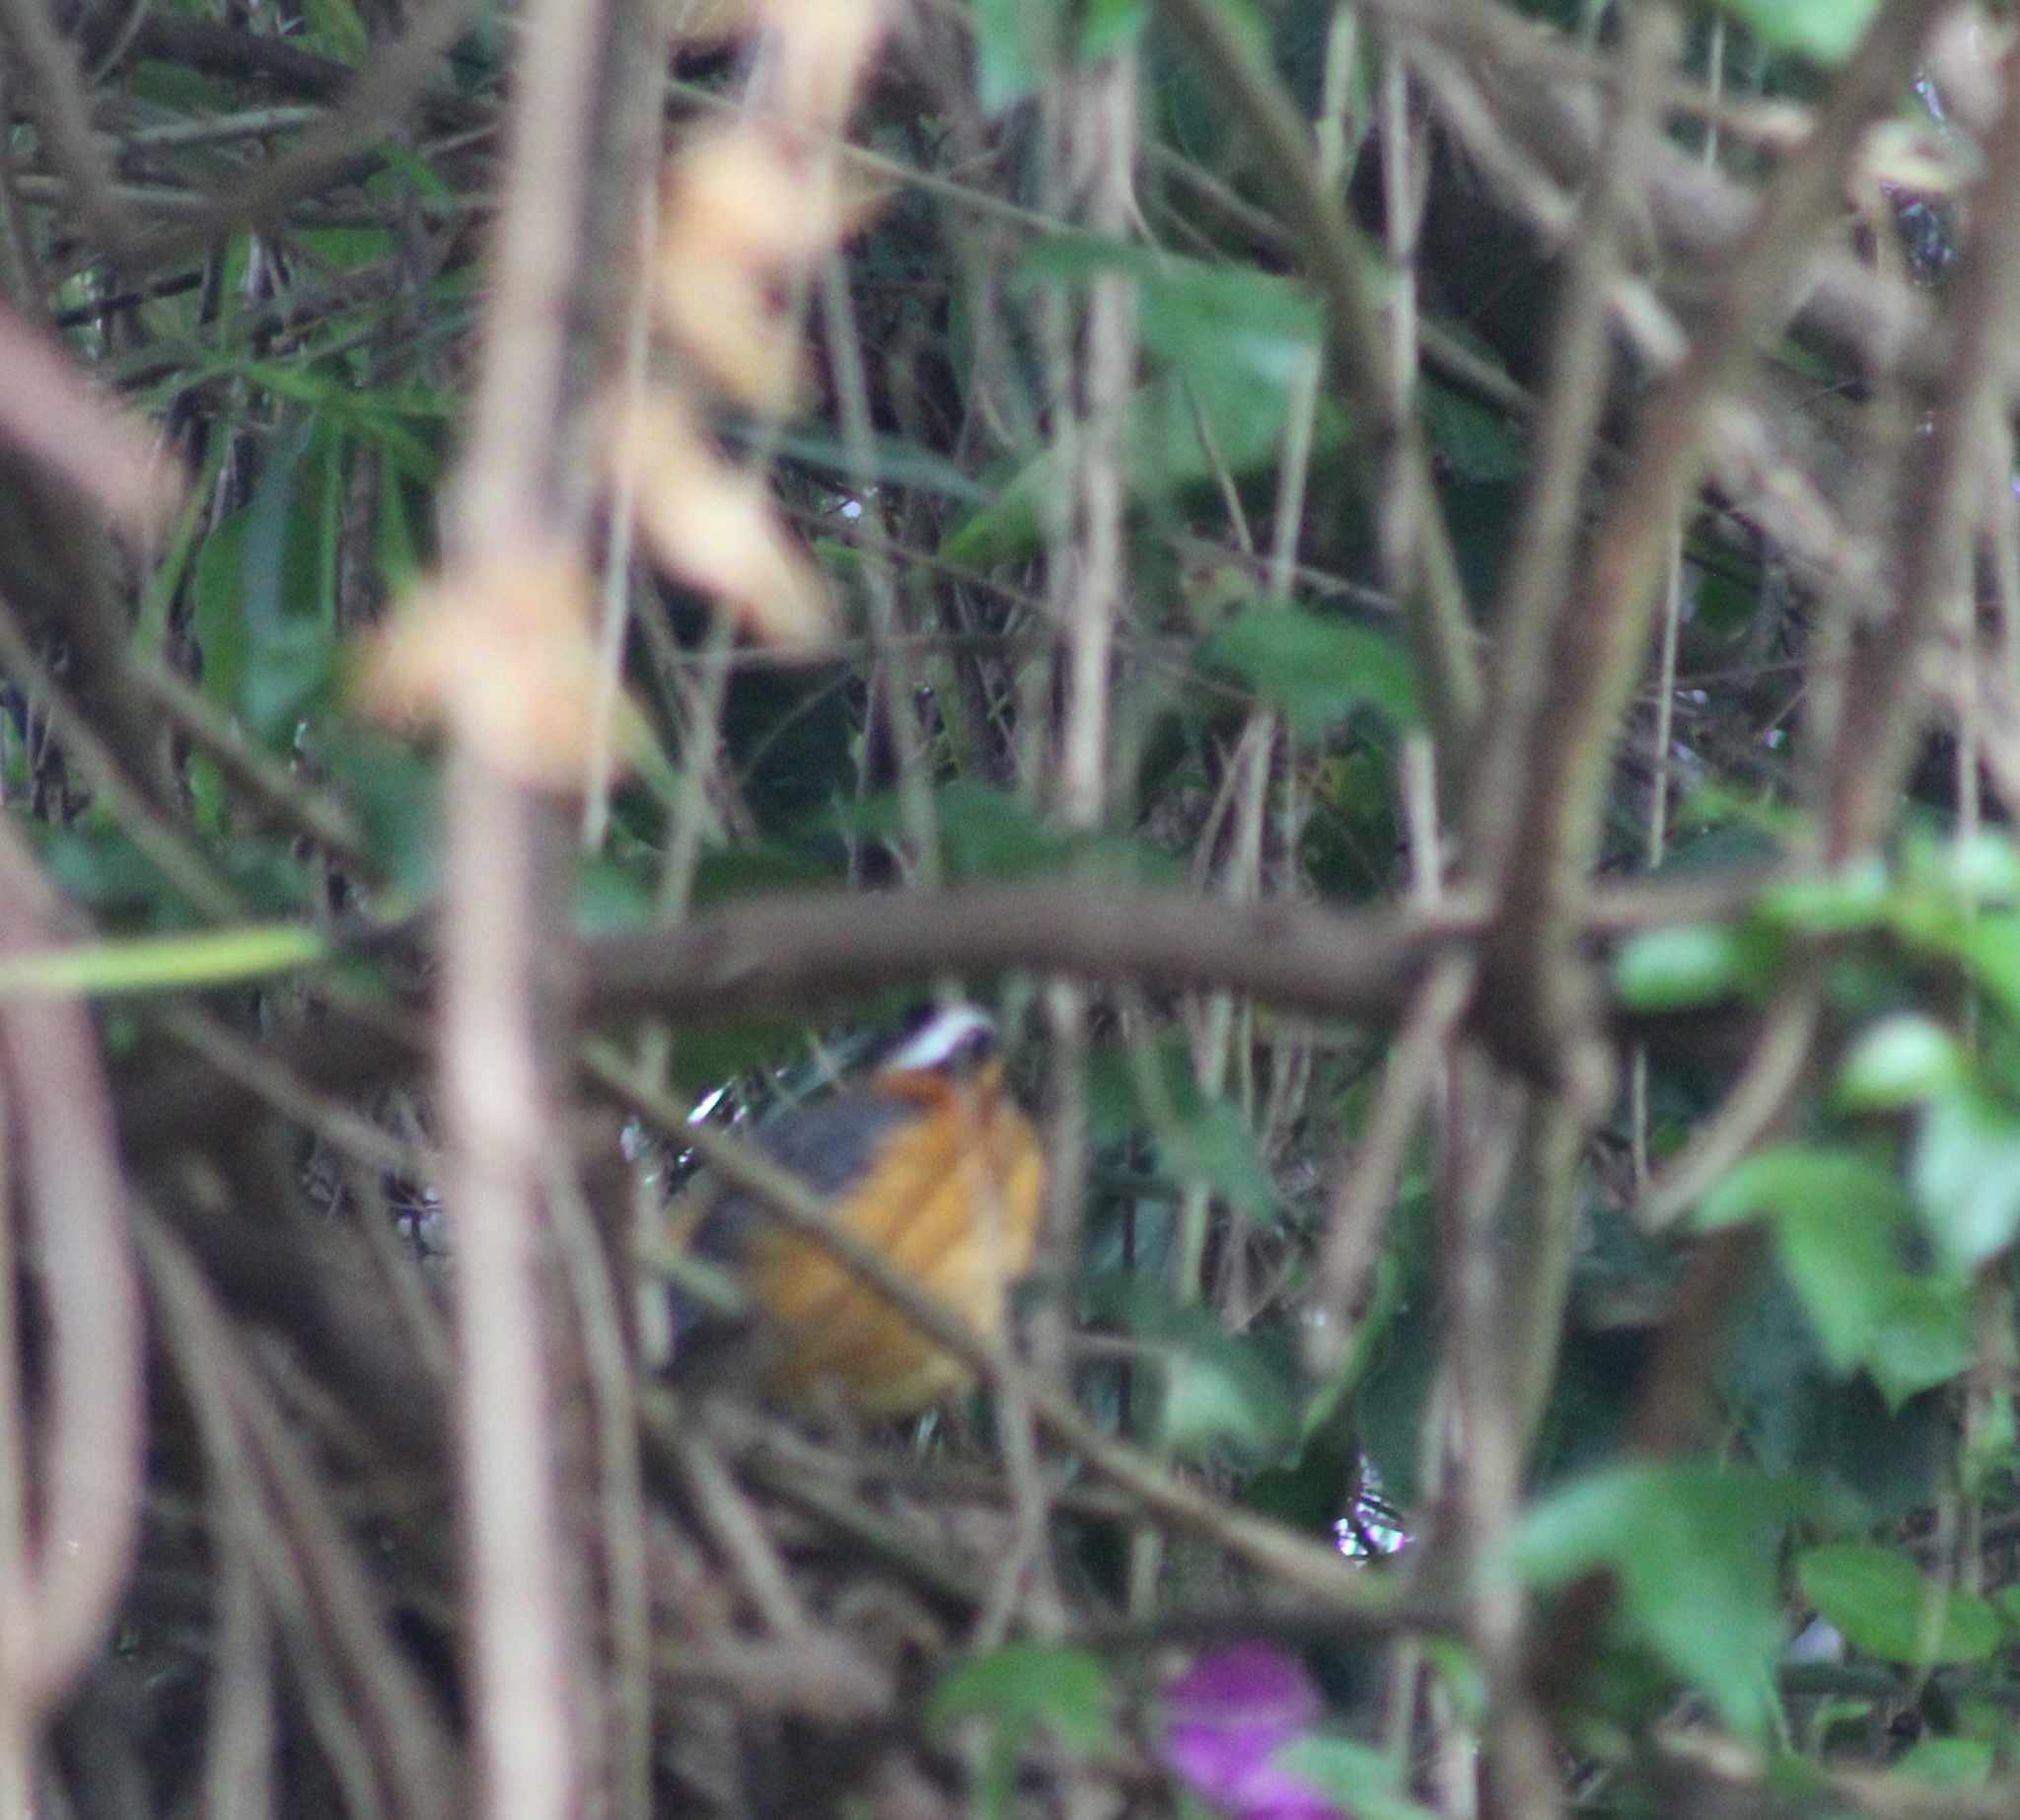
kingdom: Animalia
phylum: Chordata
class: Aves
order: Passeriformes
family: Muscicapidae
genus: Cossypha
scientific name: Cossypha heuglini
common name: White-browed robin-chat
